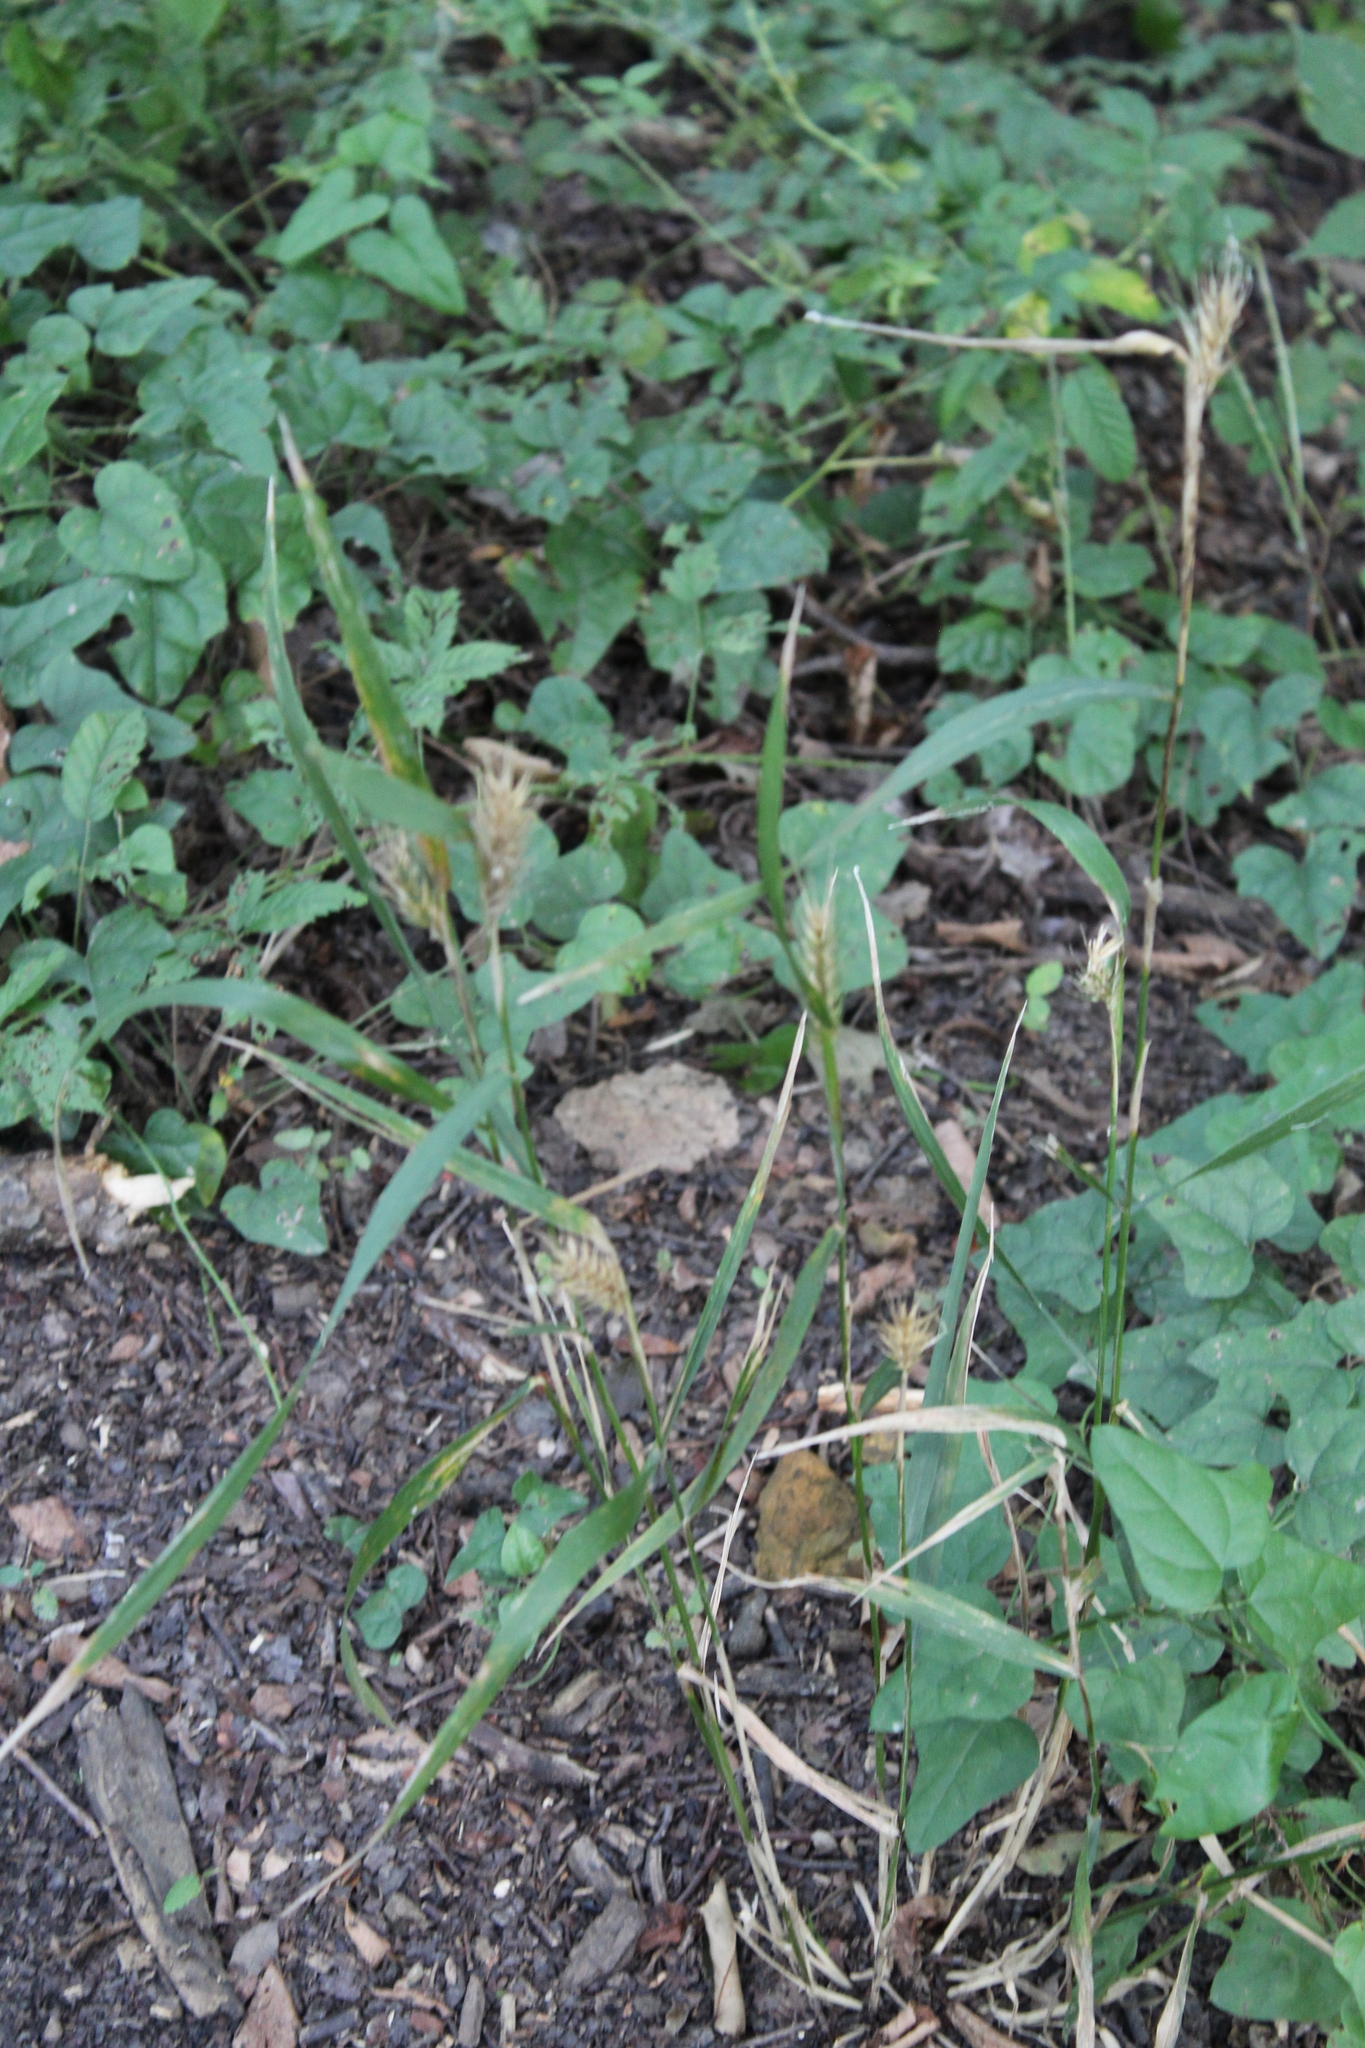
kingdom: Plantae
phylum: Tracheophyta
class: Liliopsida
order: Poales
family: Poaceae
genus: Elymus
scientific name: Elymus virginicus
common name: Common eastern wildrye
